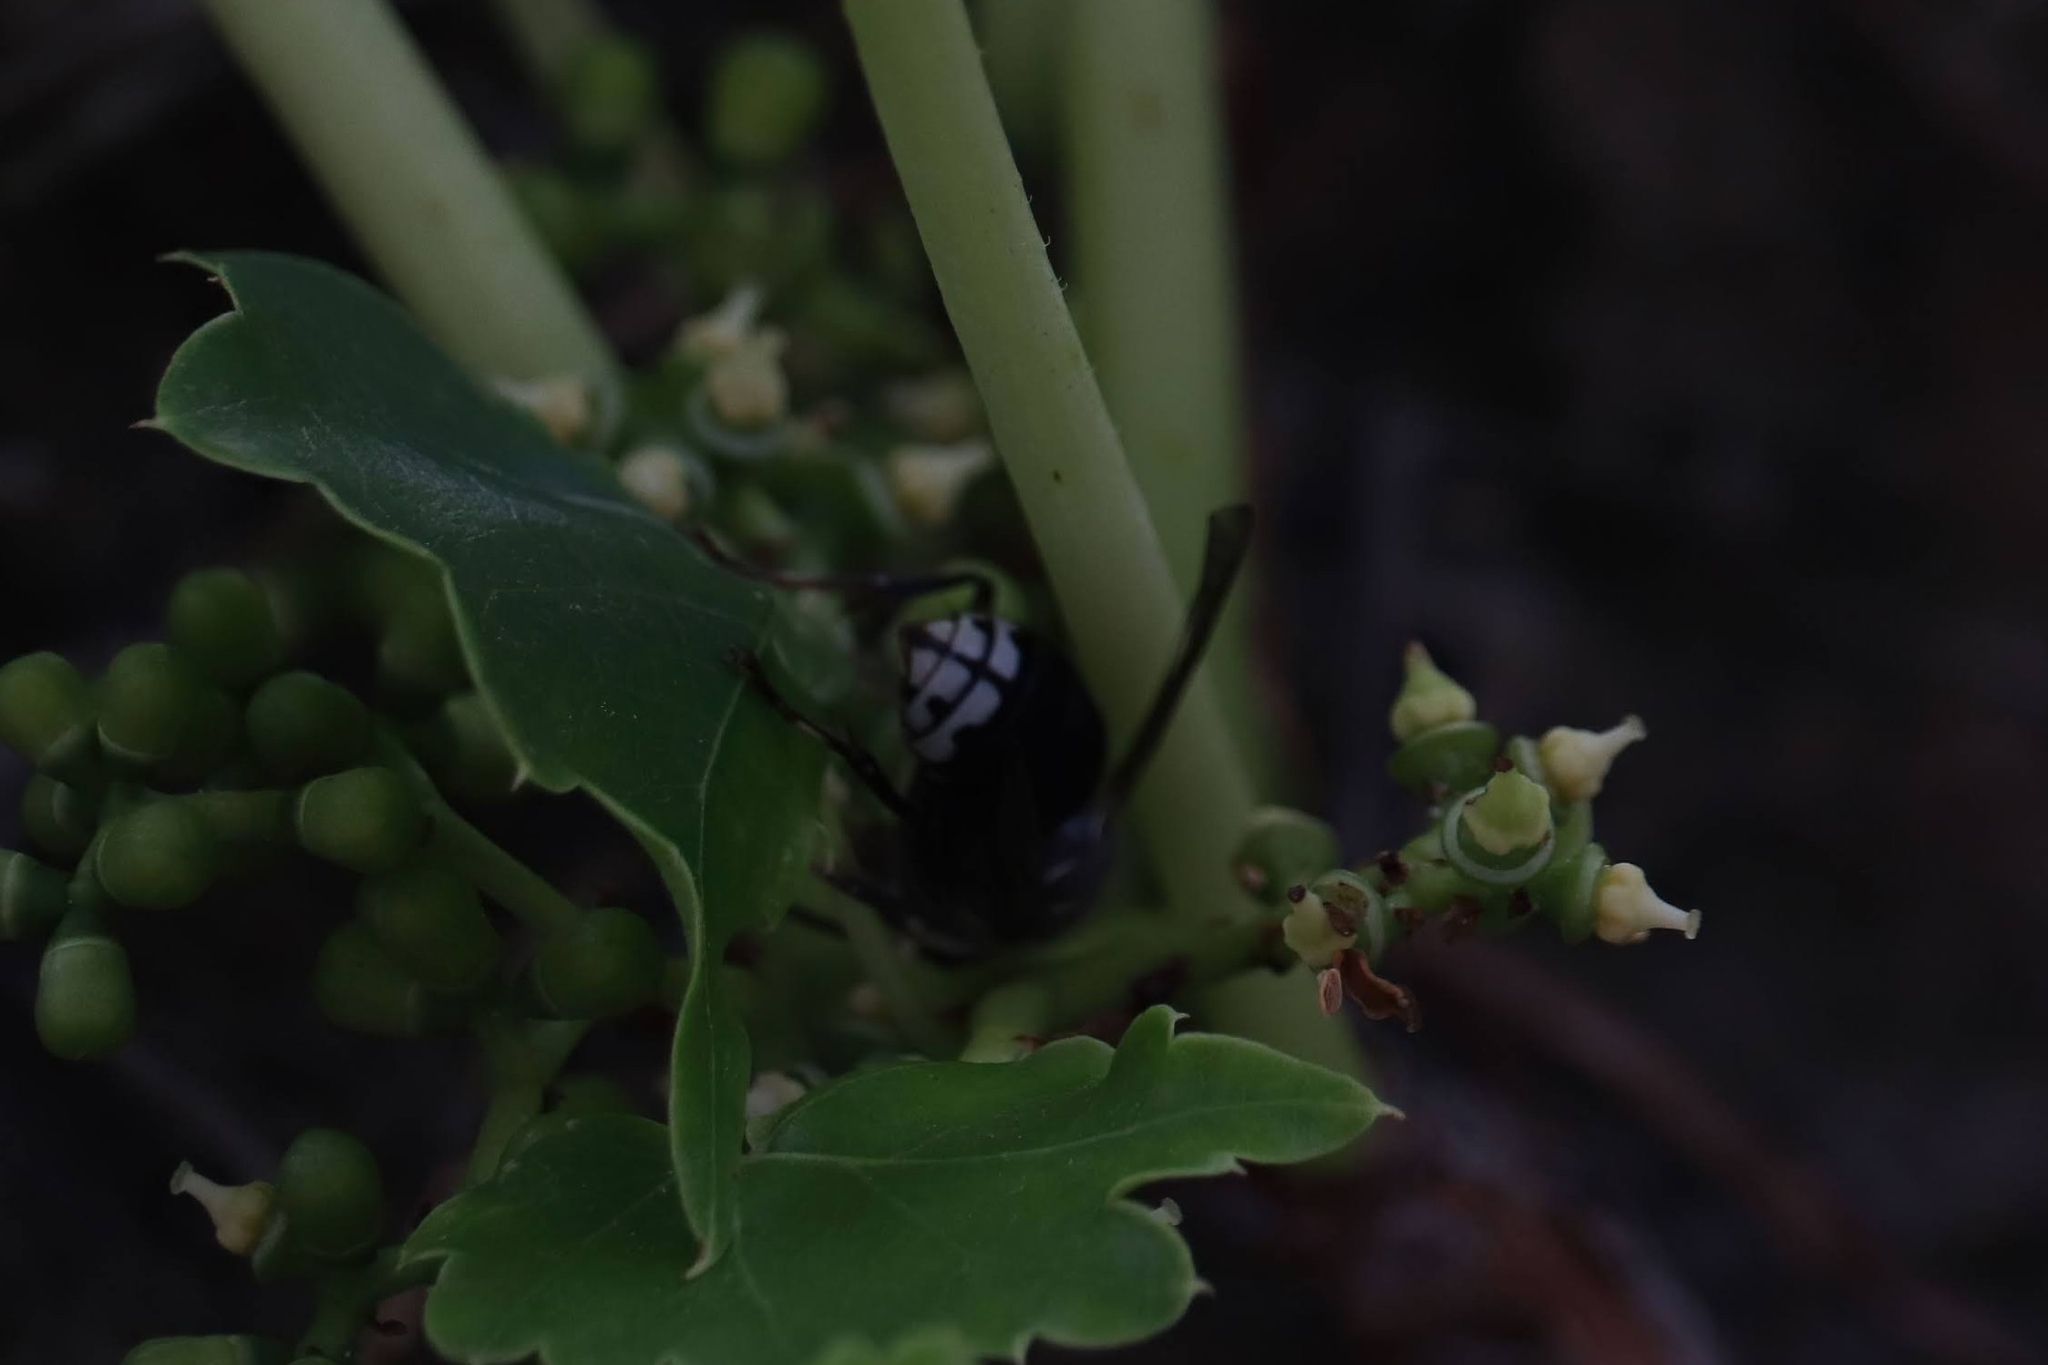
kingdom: Animalia
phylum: Arthropoda
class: Insecta
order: Hymenoptera
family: Vespidae
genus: Dolichovespula
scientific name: Dolichovespula maculata
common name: Bald-faced hornet
